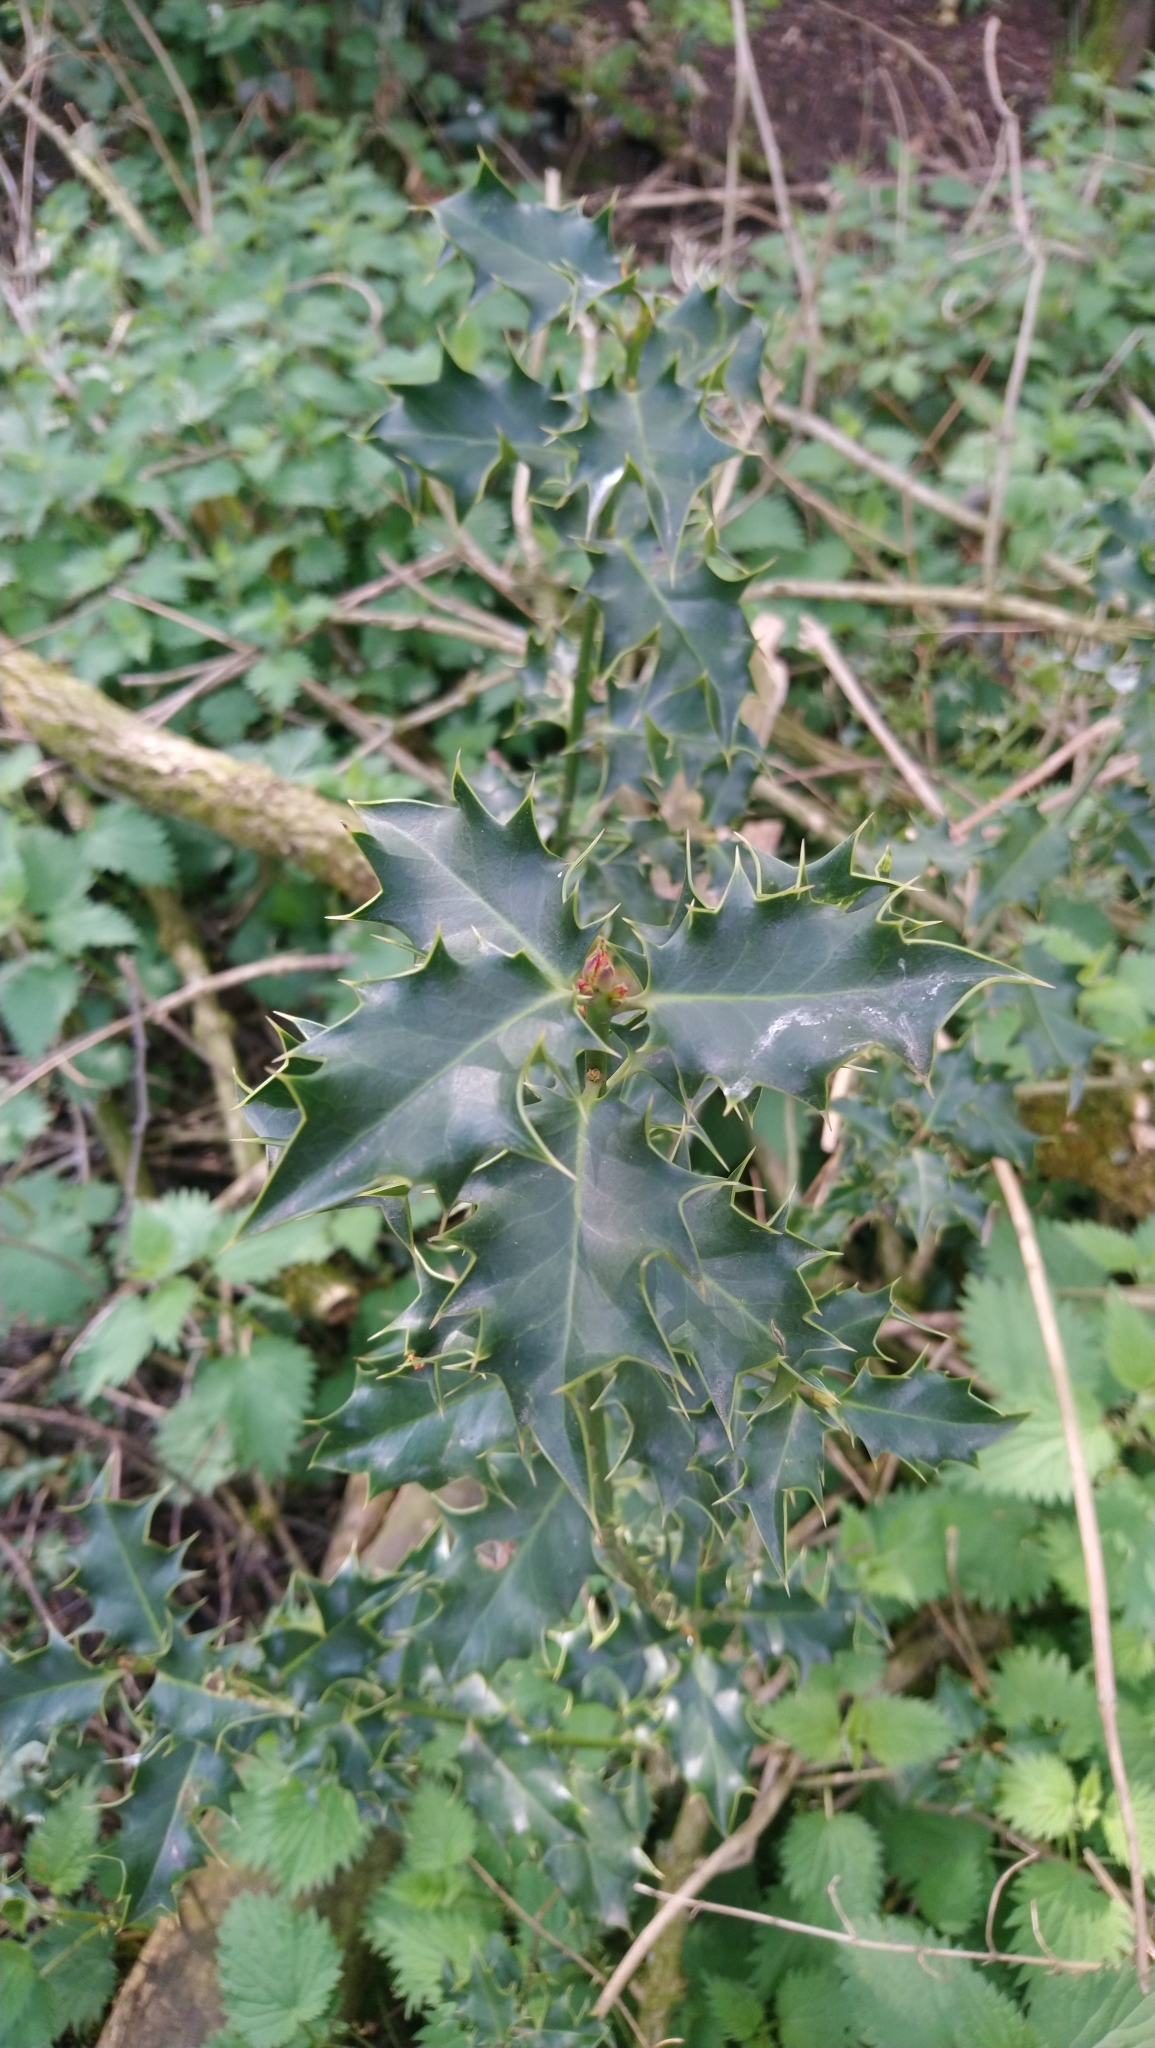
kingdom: Plantae
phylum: Tracheophyta
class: Magnoliopsida
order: Aquifoliales
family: Aquifoliaceae
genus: Ilex
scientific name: Ilex aquifolium
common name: English holly
